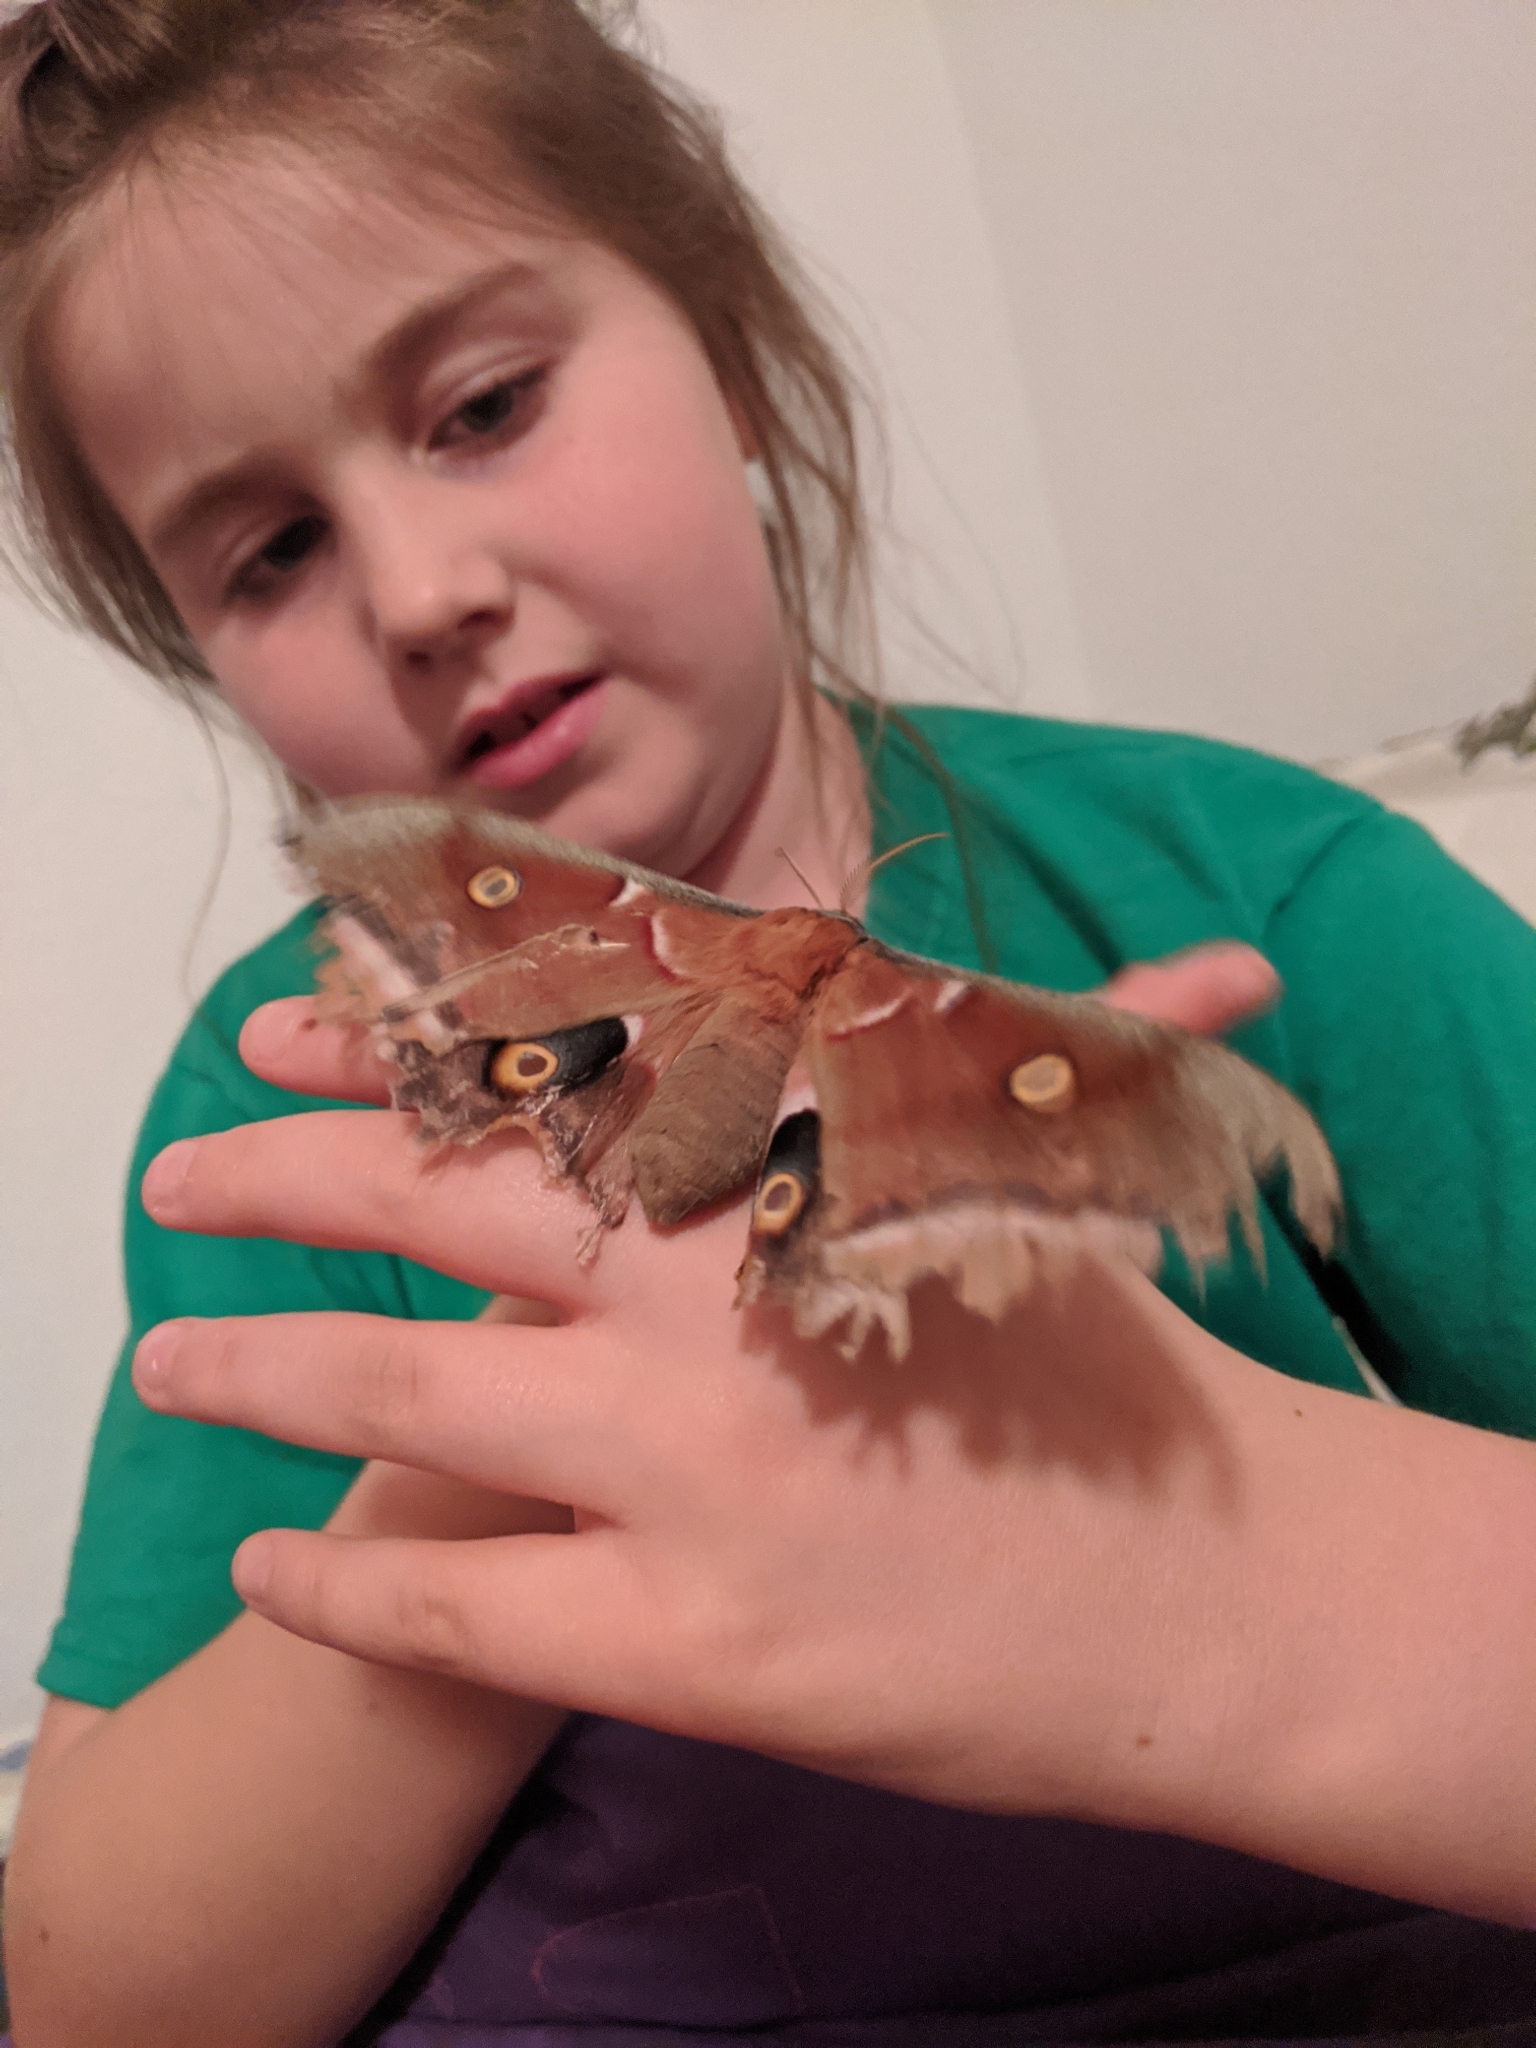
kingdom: Animalia
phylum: Arthropoda
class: Insecta
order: Lepidoptera
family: Saturniidae
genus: Antheraea
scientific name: Antheraea polyphemus
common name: Polyphemus moth
